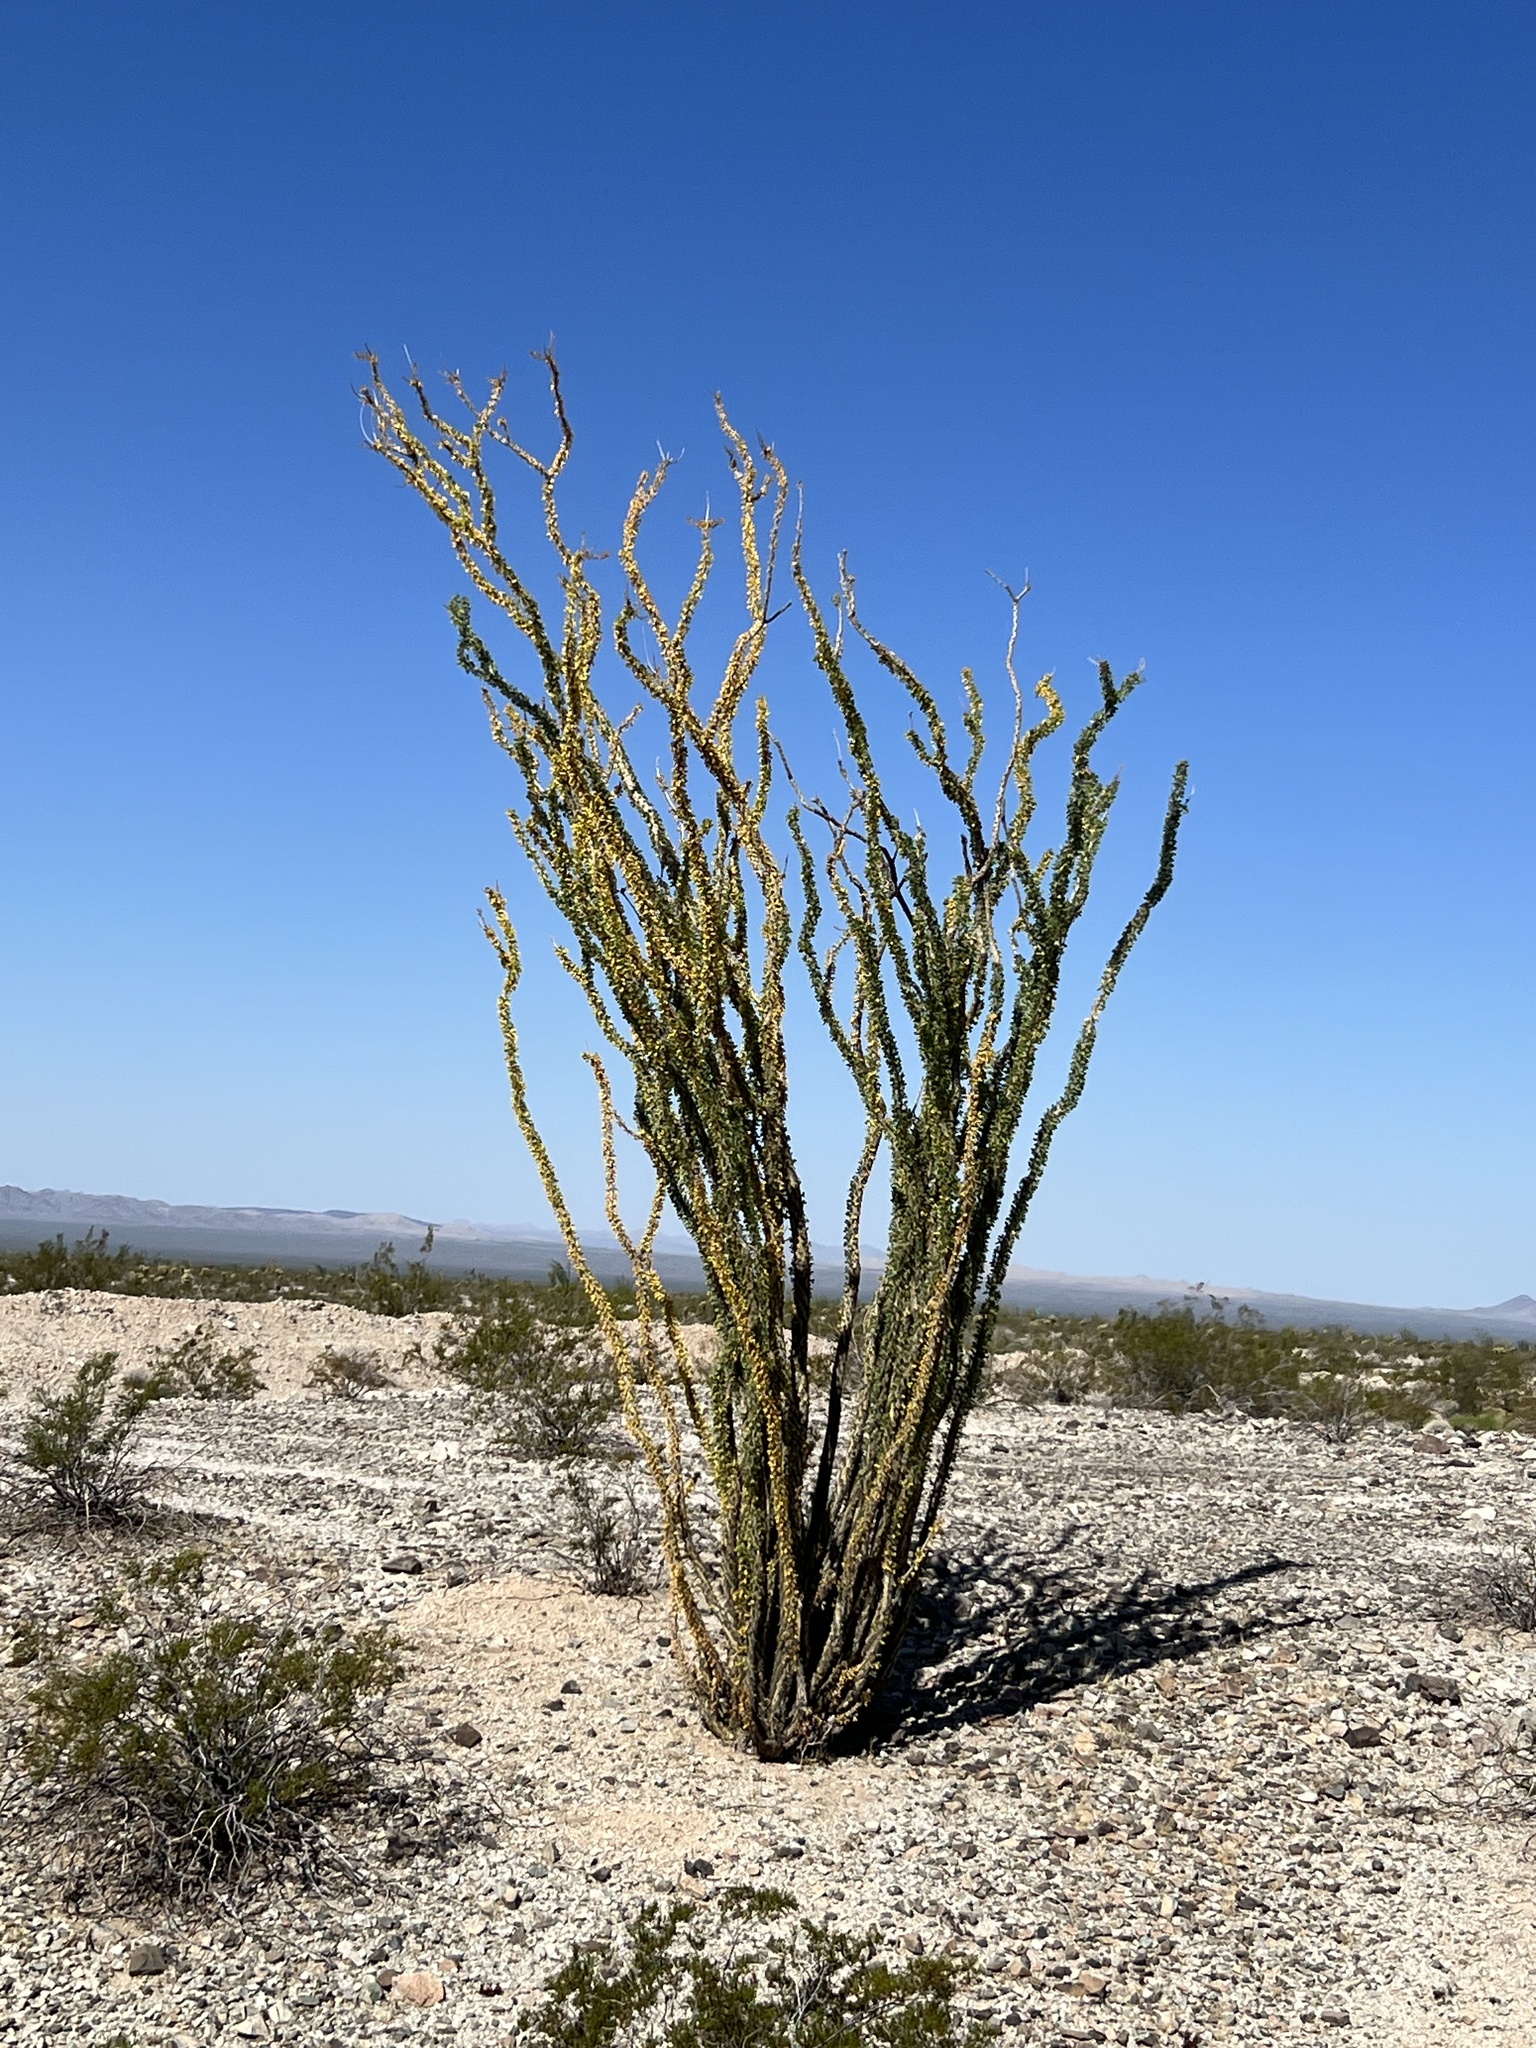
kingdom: Plantae
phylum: Tracheophyta
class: Magnoliopsida
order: Ericales
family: Fouquieriaceae
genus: Fouquieria
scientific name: Fouquieria splendens
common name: Vine-cactus
